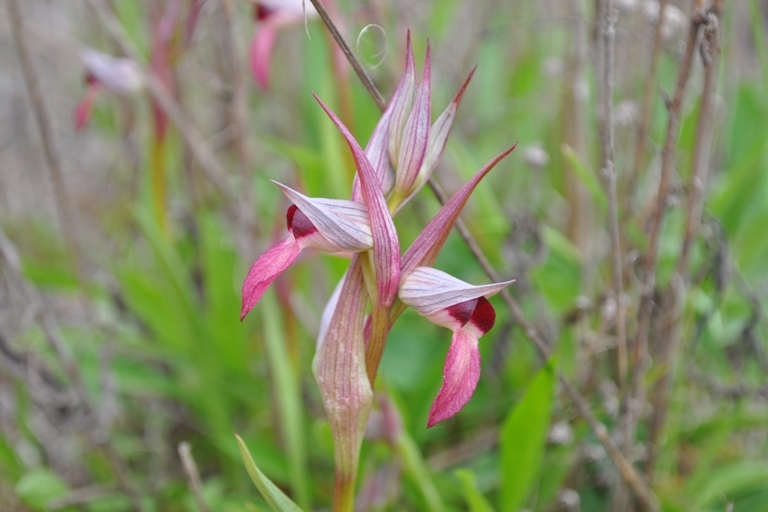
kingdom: Plantae
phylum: Tracheophyta
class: Liliopsida
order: Asparagales
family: Orchidaceae
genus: Serapias
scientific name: Serapias lingua
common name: Tongue-orchid
